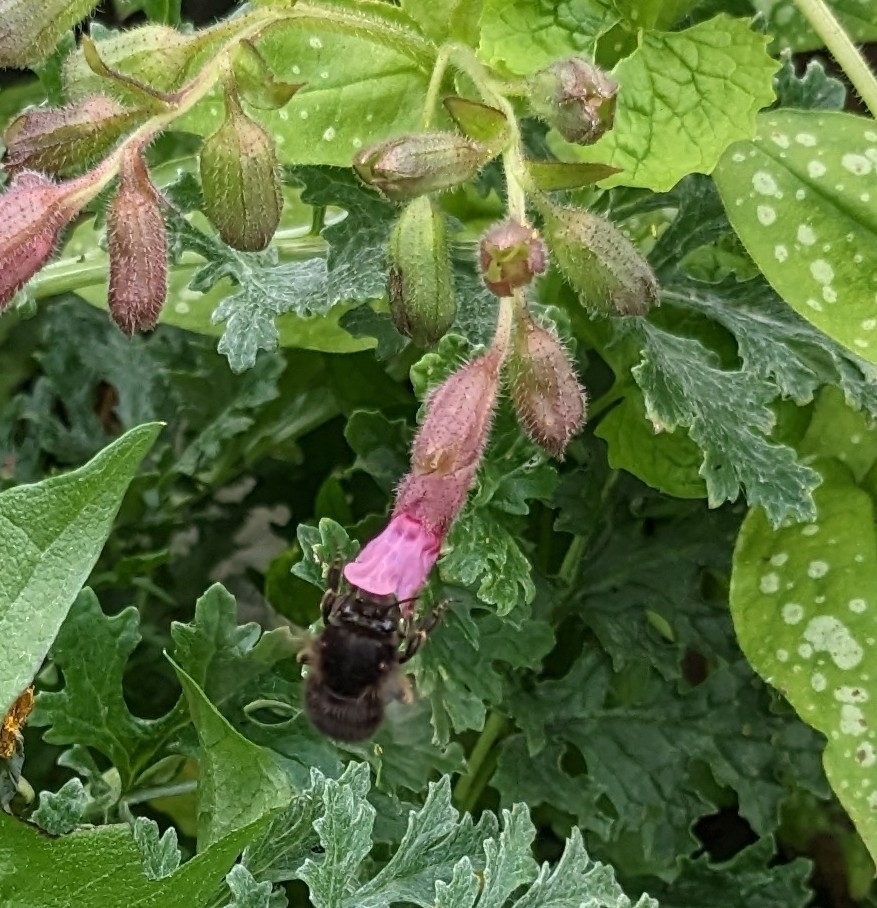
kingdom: Animalia
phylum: Arthropoda
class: Insecta
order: Hymenoptera
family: Apidae
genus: Anthophora
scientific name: Anthophora plumipes
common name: Hairy-footed flower bee
